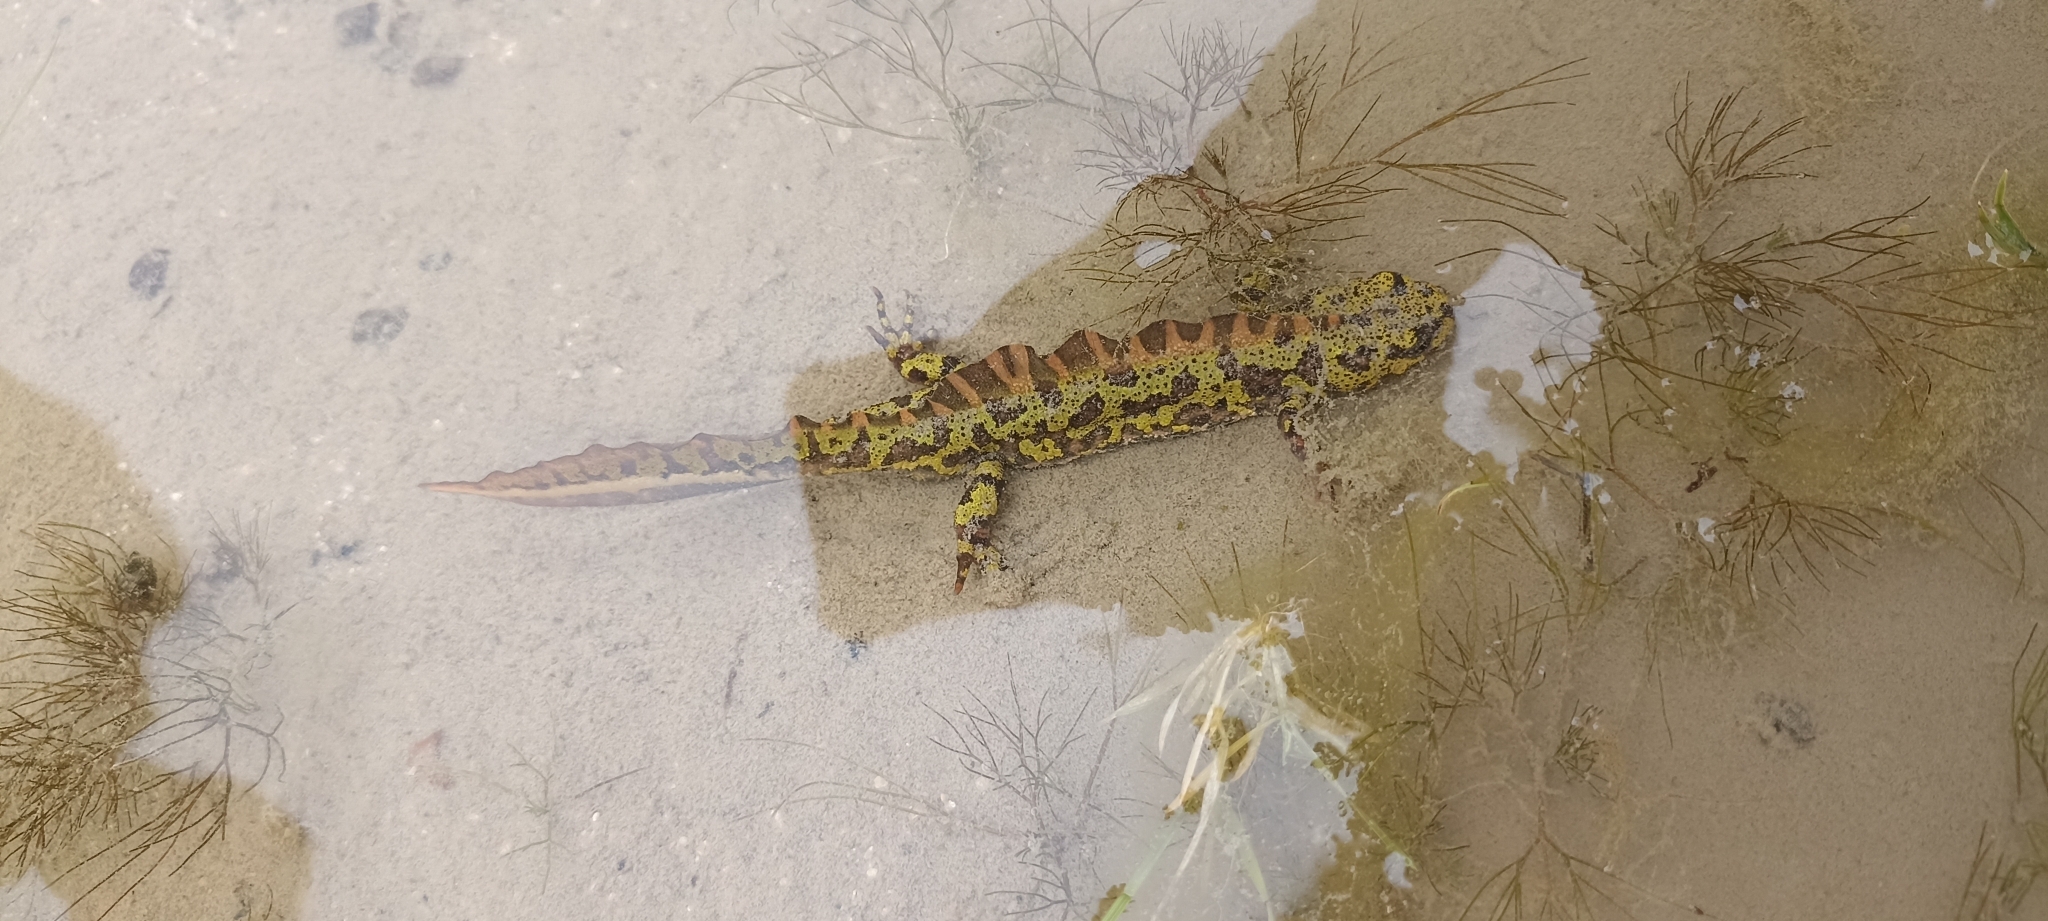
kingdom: Animalia
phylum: Chordata
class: Amphibia
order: Caudata
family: Salamandridae
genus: Triturus
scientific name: Triturus marmoratus
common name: Marbled newt
